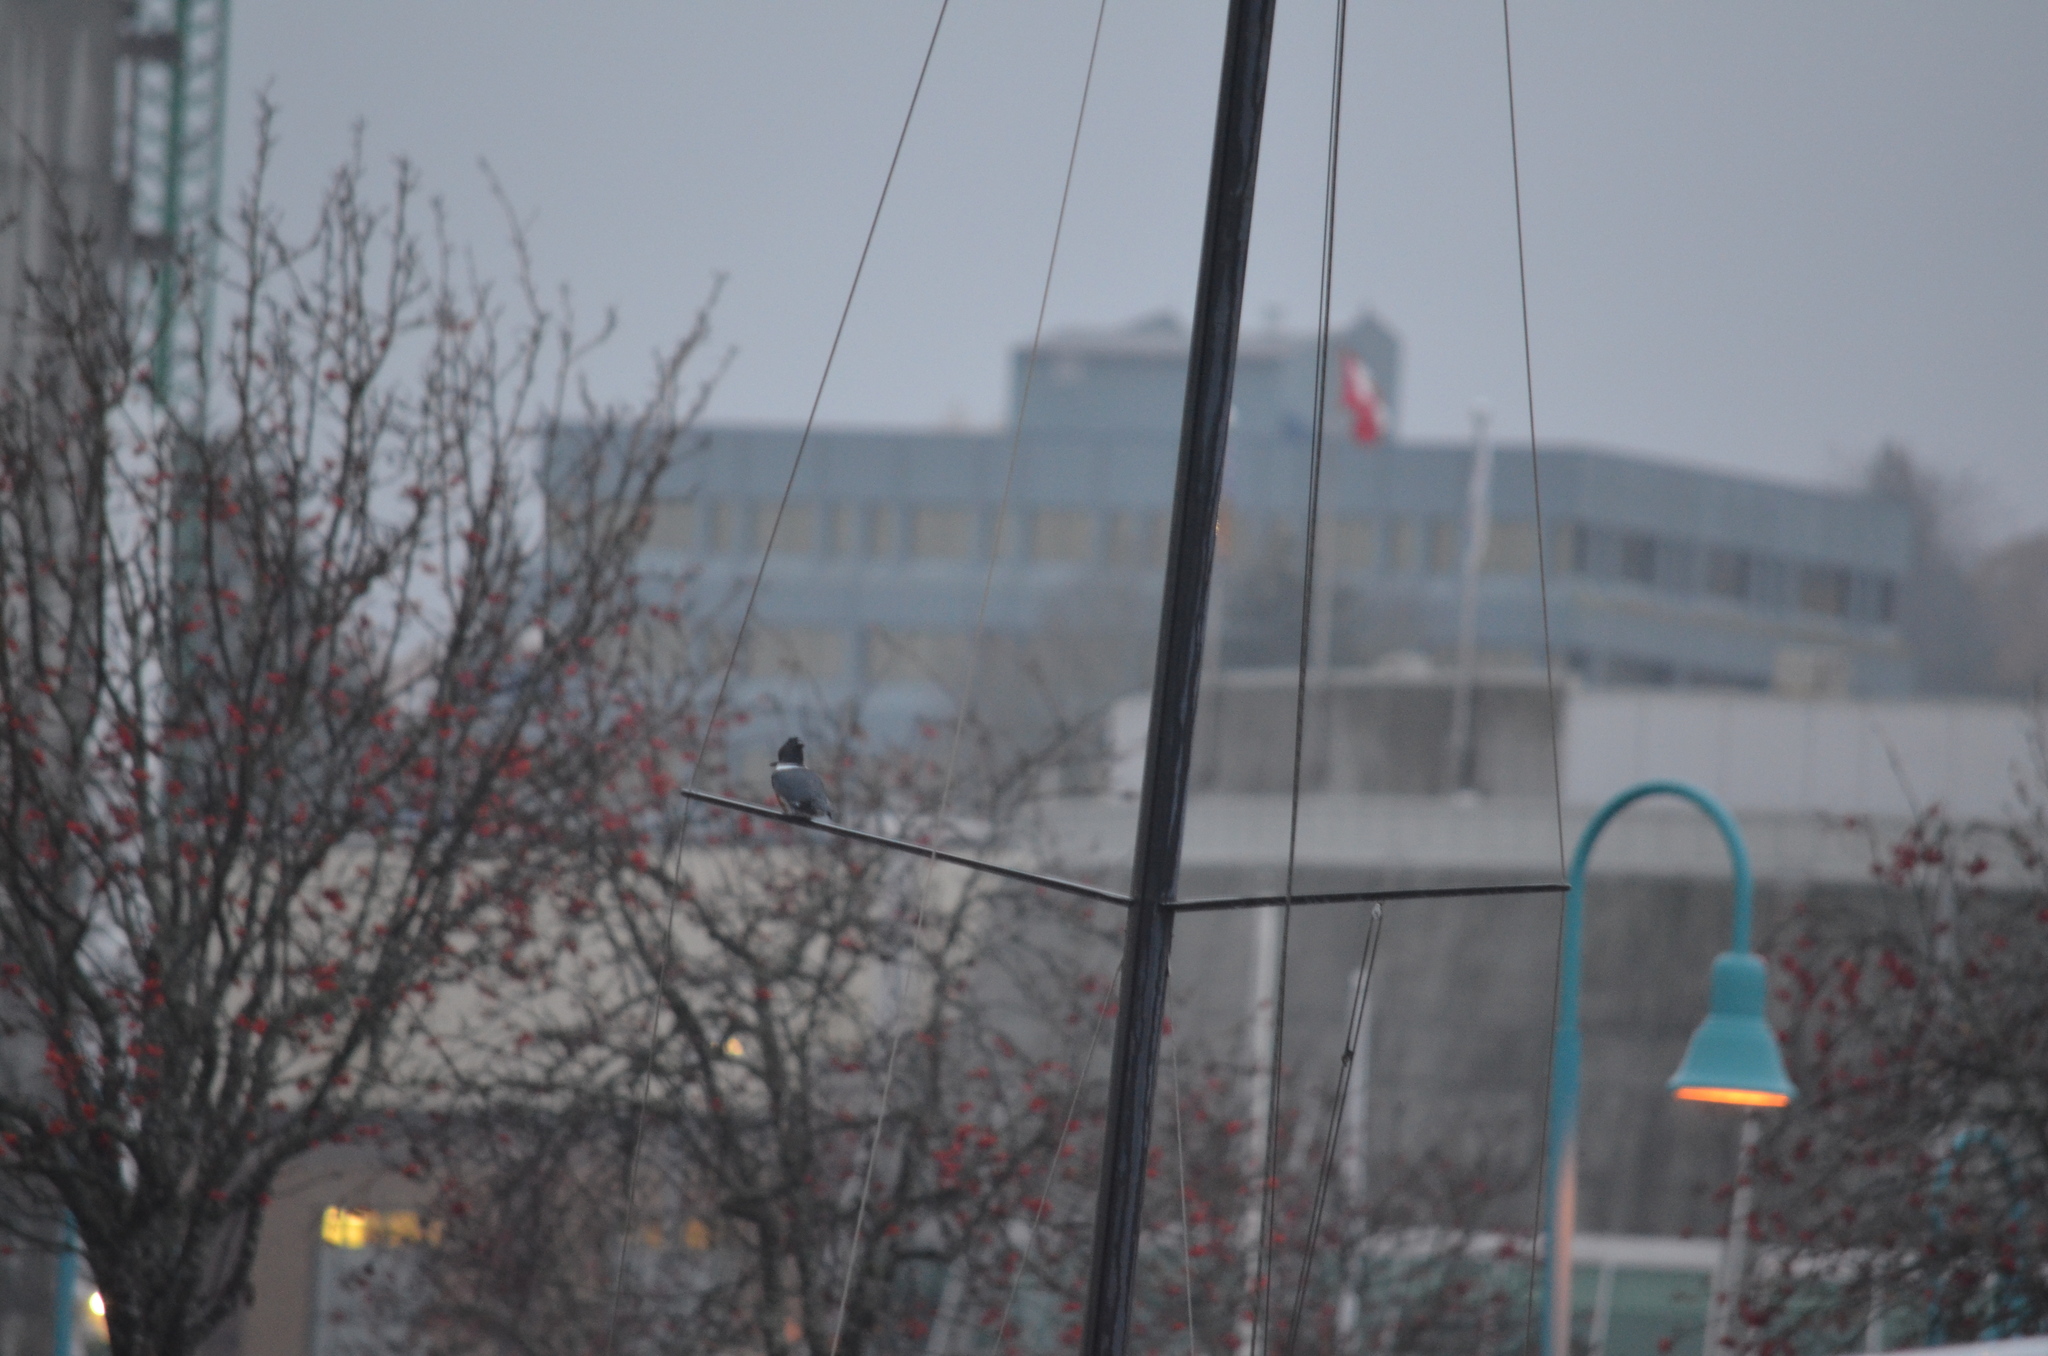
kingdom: Animalia
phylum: Chordata
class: Aves
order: Coraciiformes
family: Alcedinidae
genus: Megaceryle
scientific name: Megaceryle alcyon
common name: Belted kingfisher
